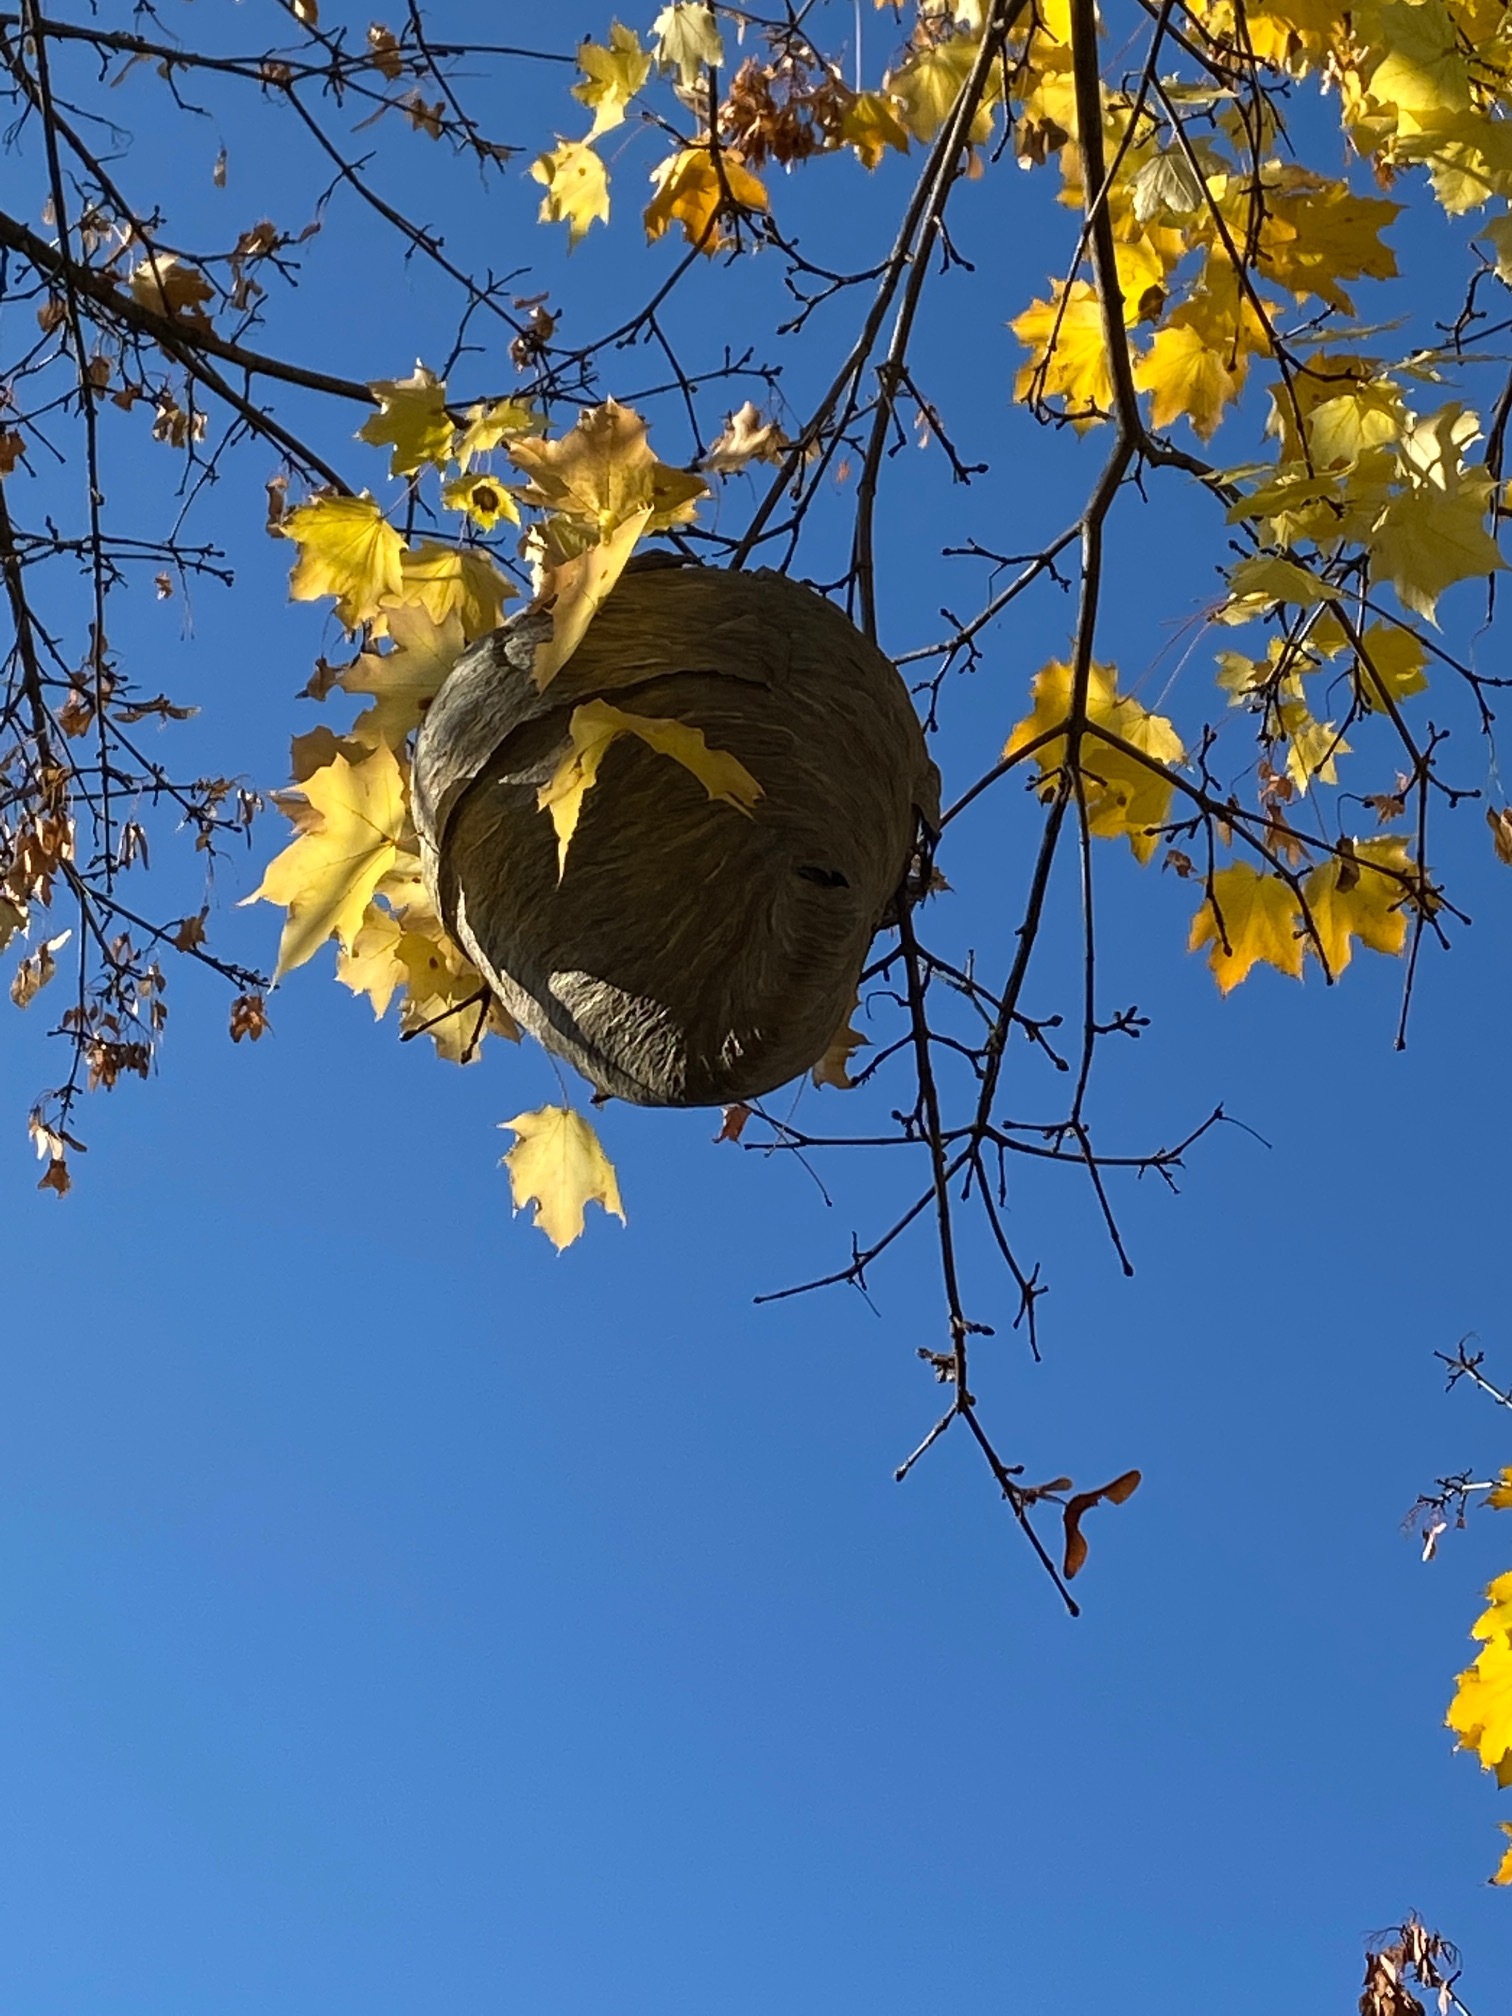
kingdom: Animalia
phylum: Arthropoda
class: Insecta
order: Hymenoptera
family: Vespidae
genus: Dolichovespula
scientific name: Dolichovespula
